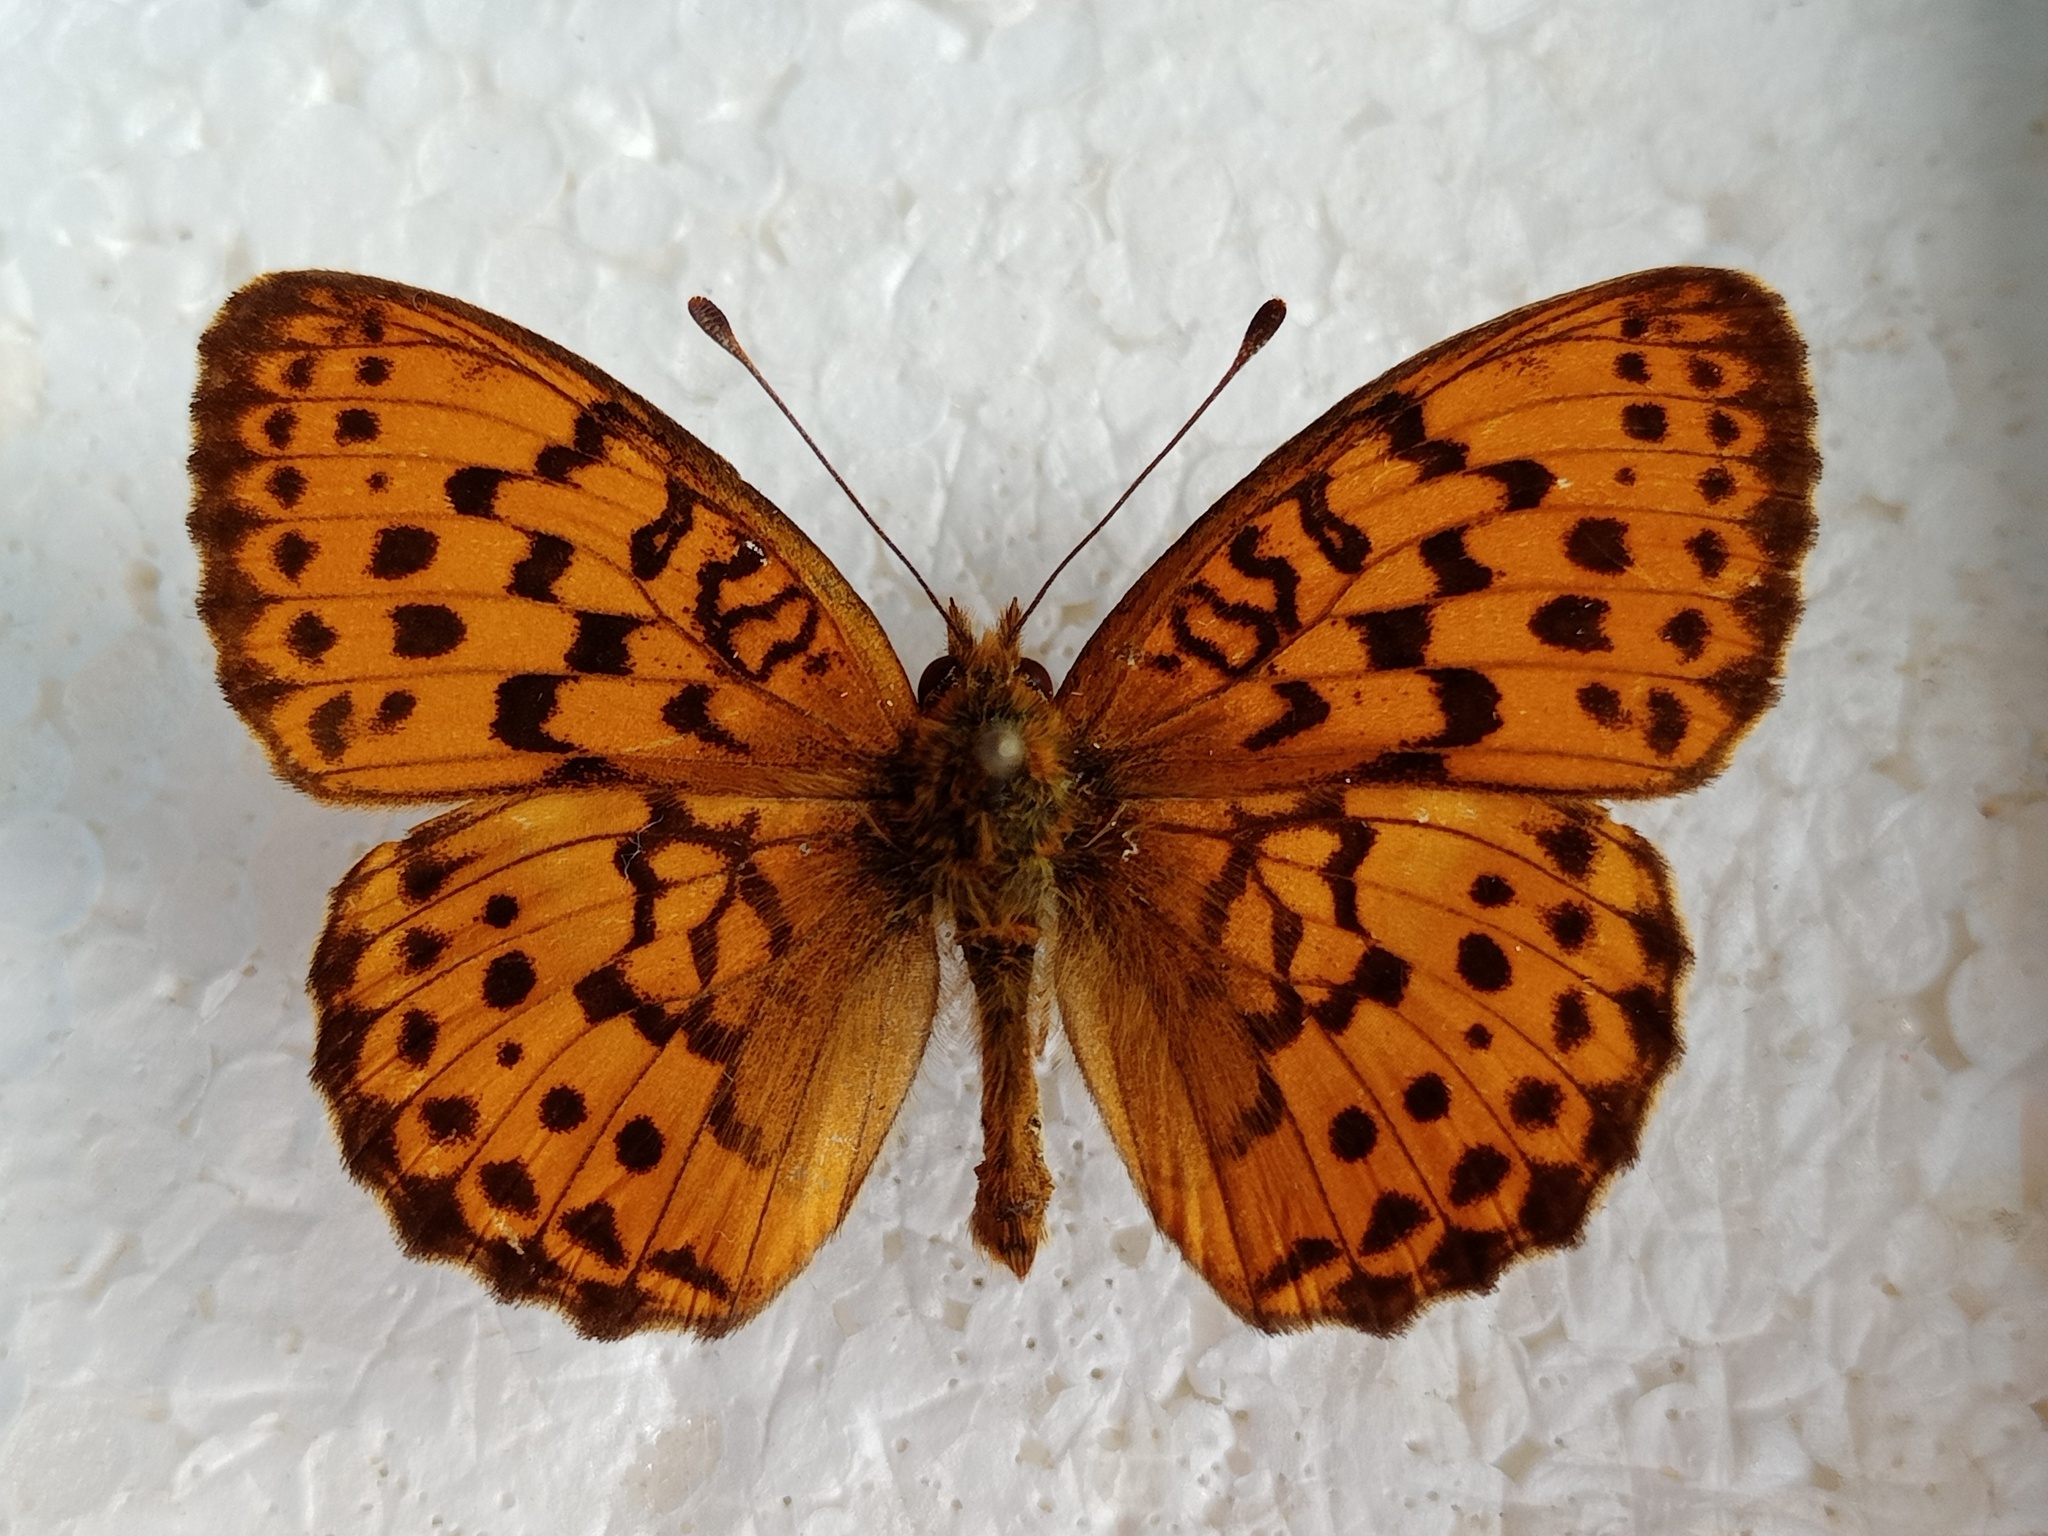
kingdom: Animalia
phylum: Arthropoda
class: Insecta
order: Lepidoptera
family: Nymphalidae
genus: Brenthis
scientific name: Brenthis daphne
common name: Marbled fritillary
